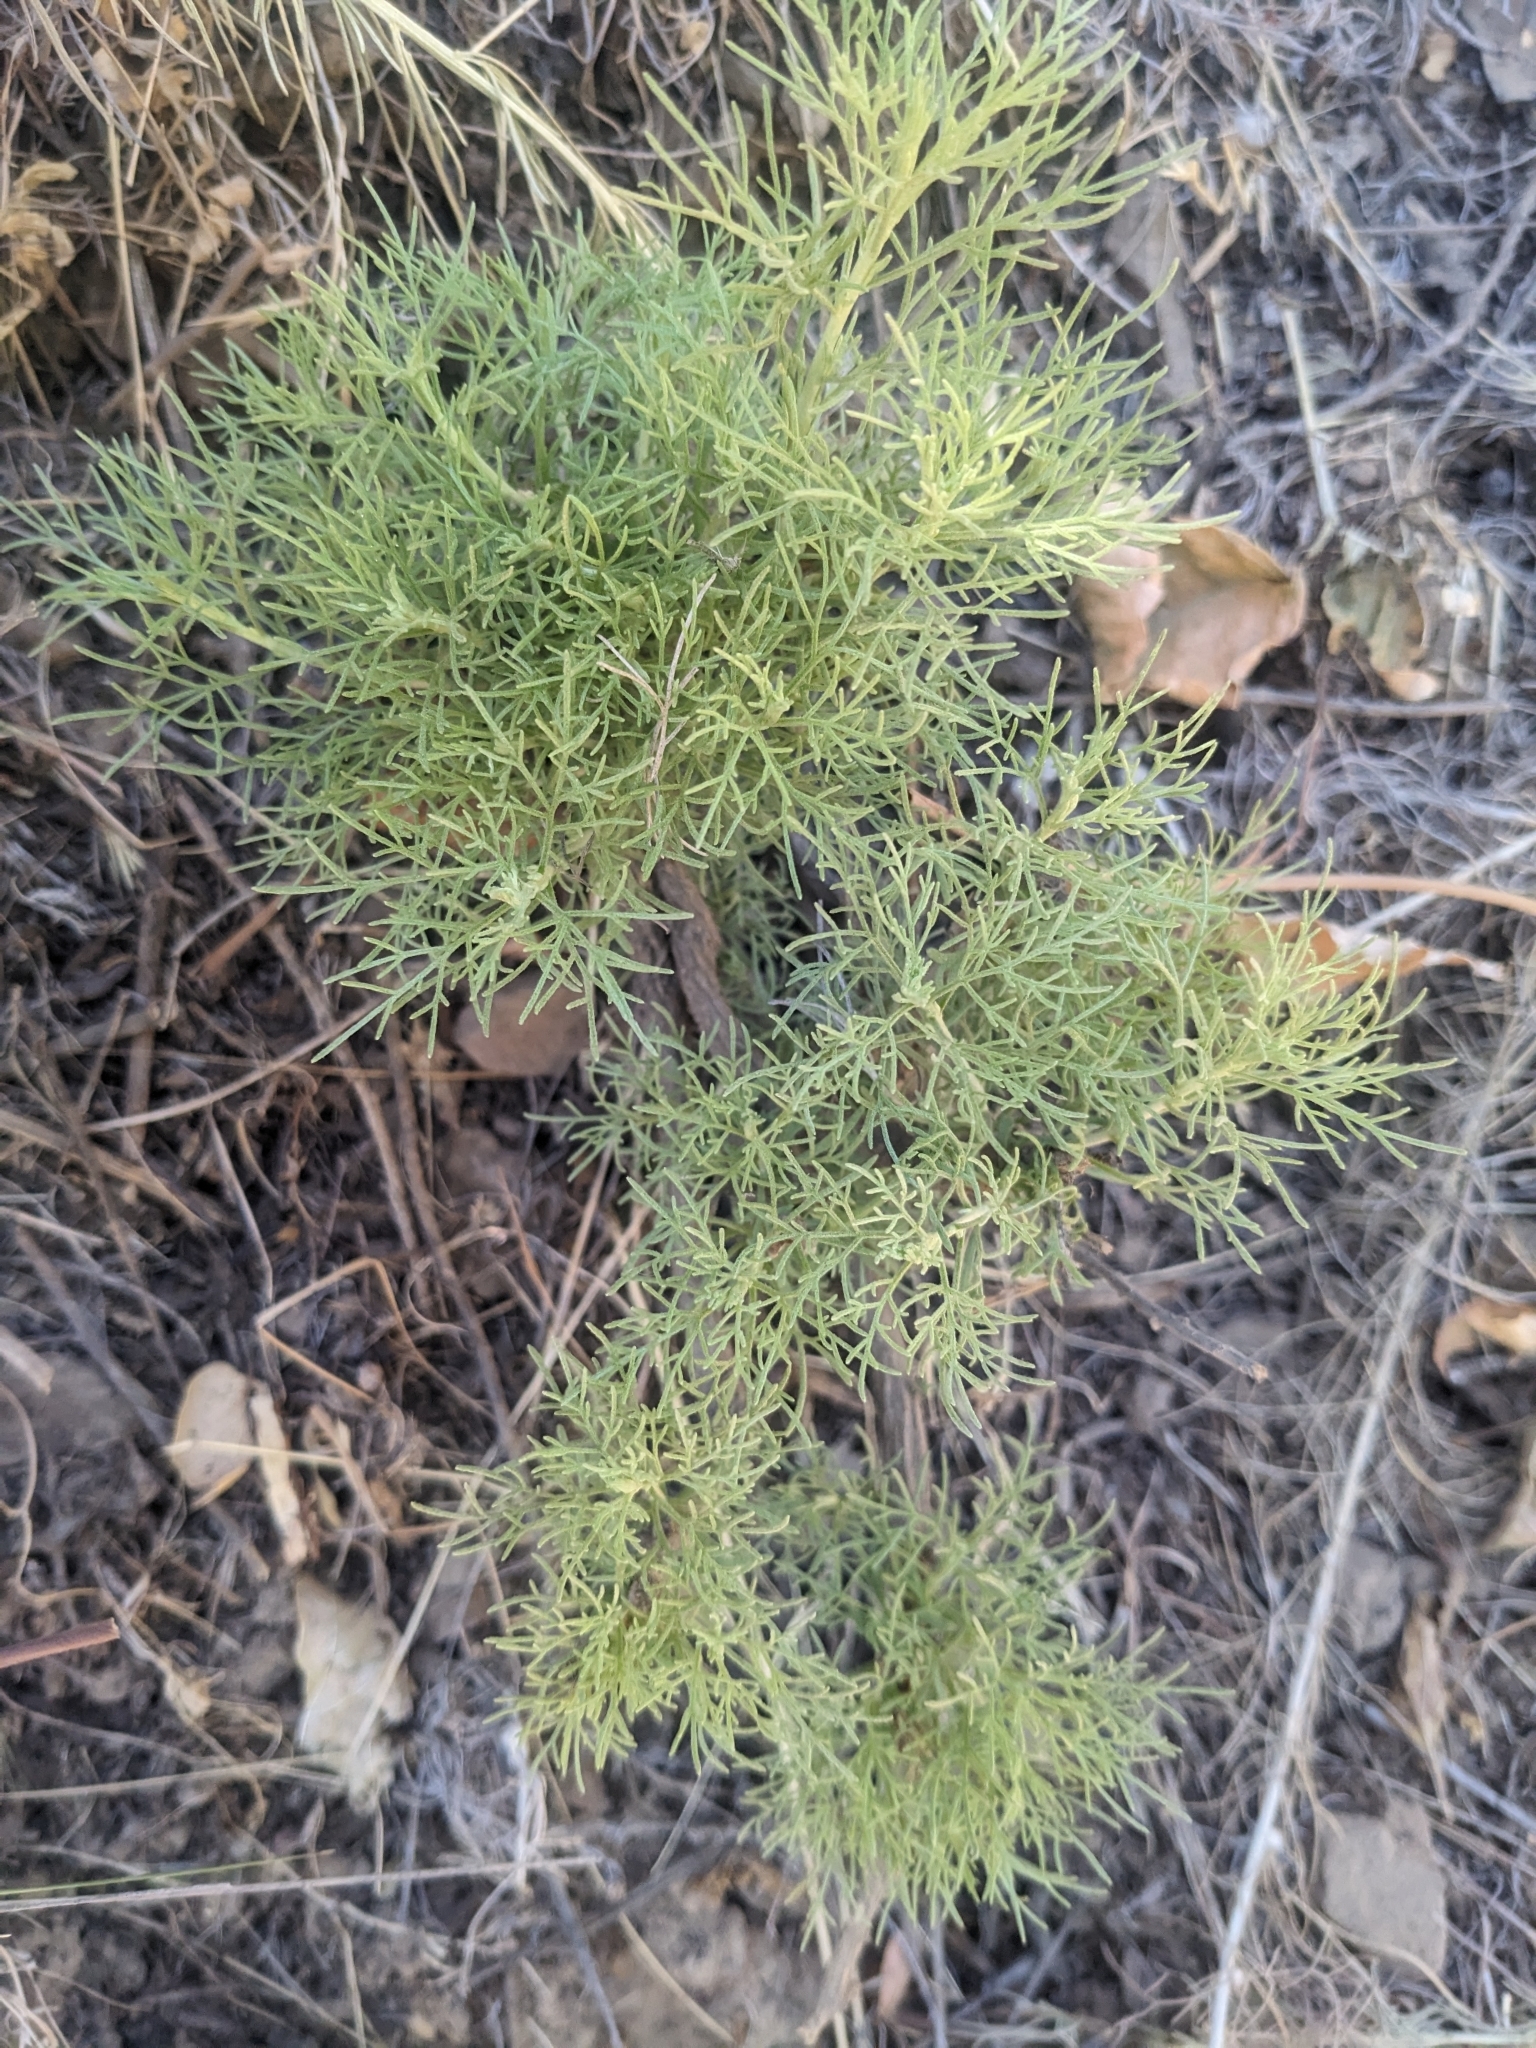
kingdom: Plantae
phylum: Tracheophyta
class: Magnoliopsida
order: Asterales
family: Asteraceae
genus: Artemisia
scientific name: Artemisia californica
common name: California sagebrush
